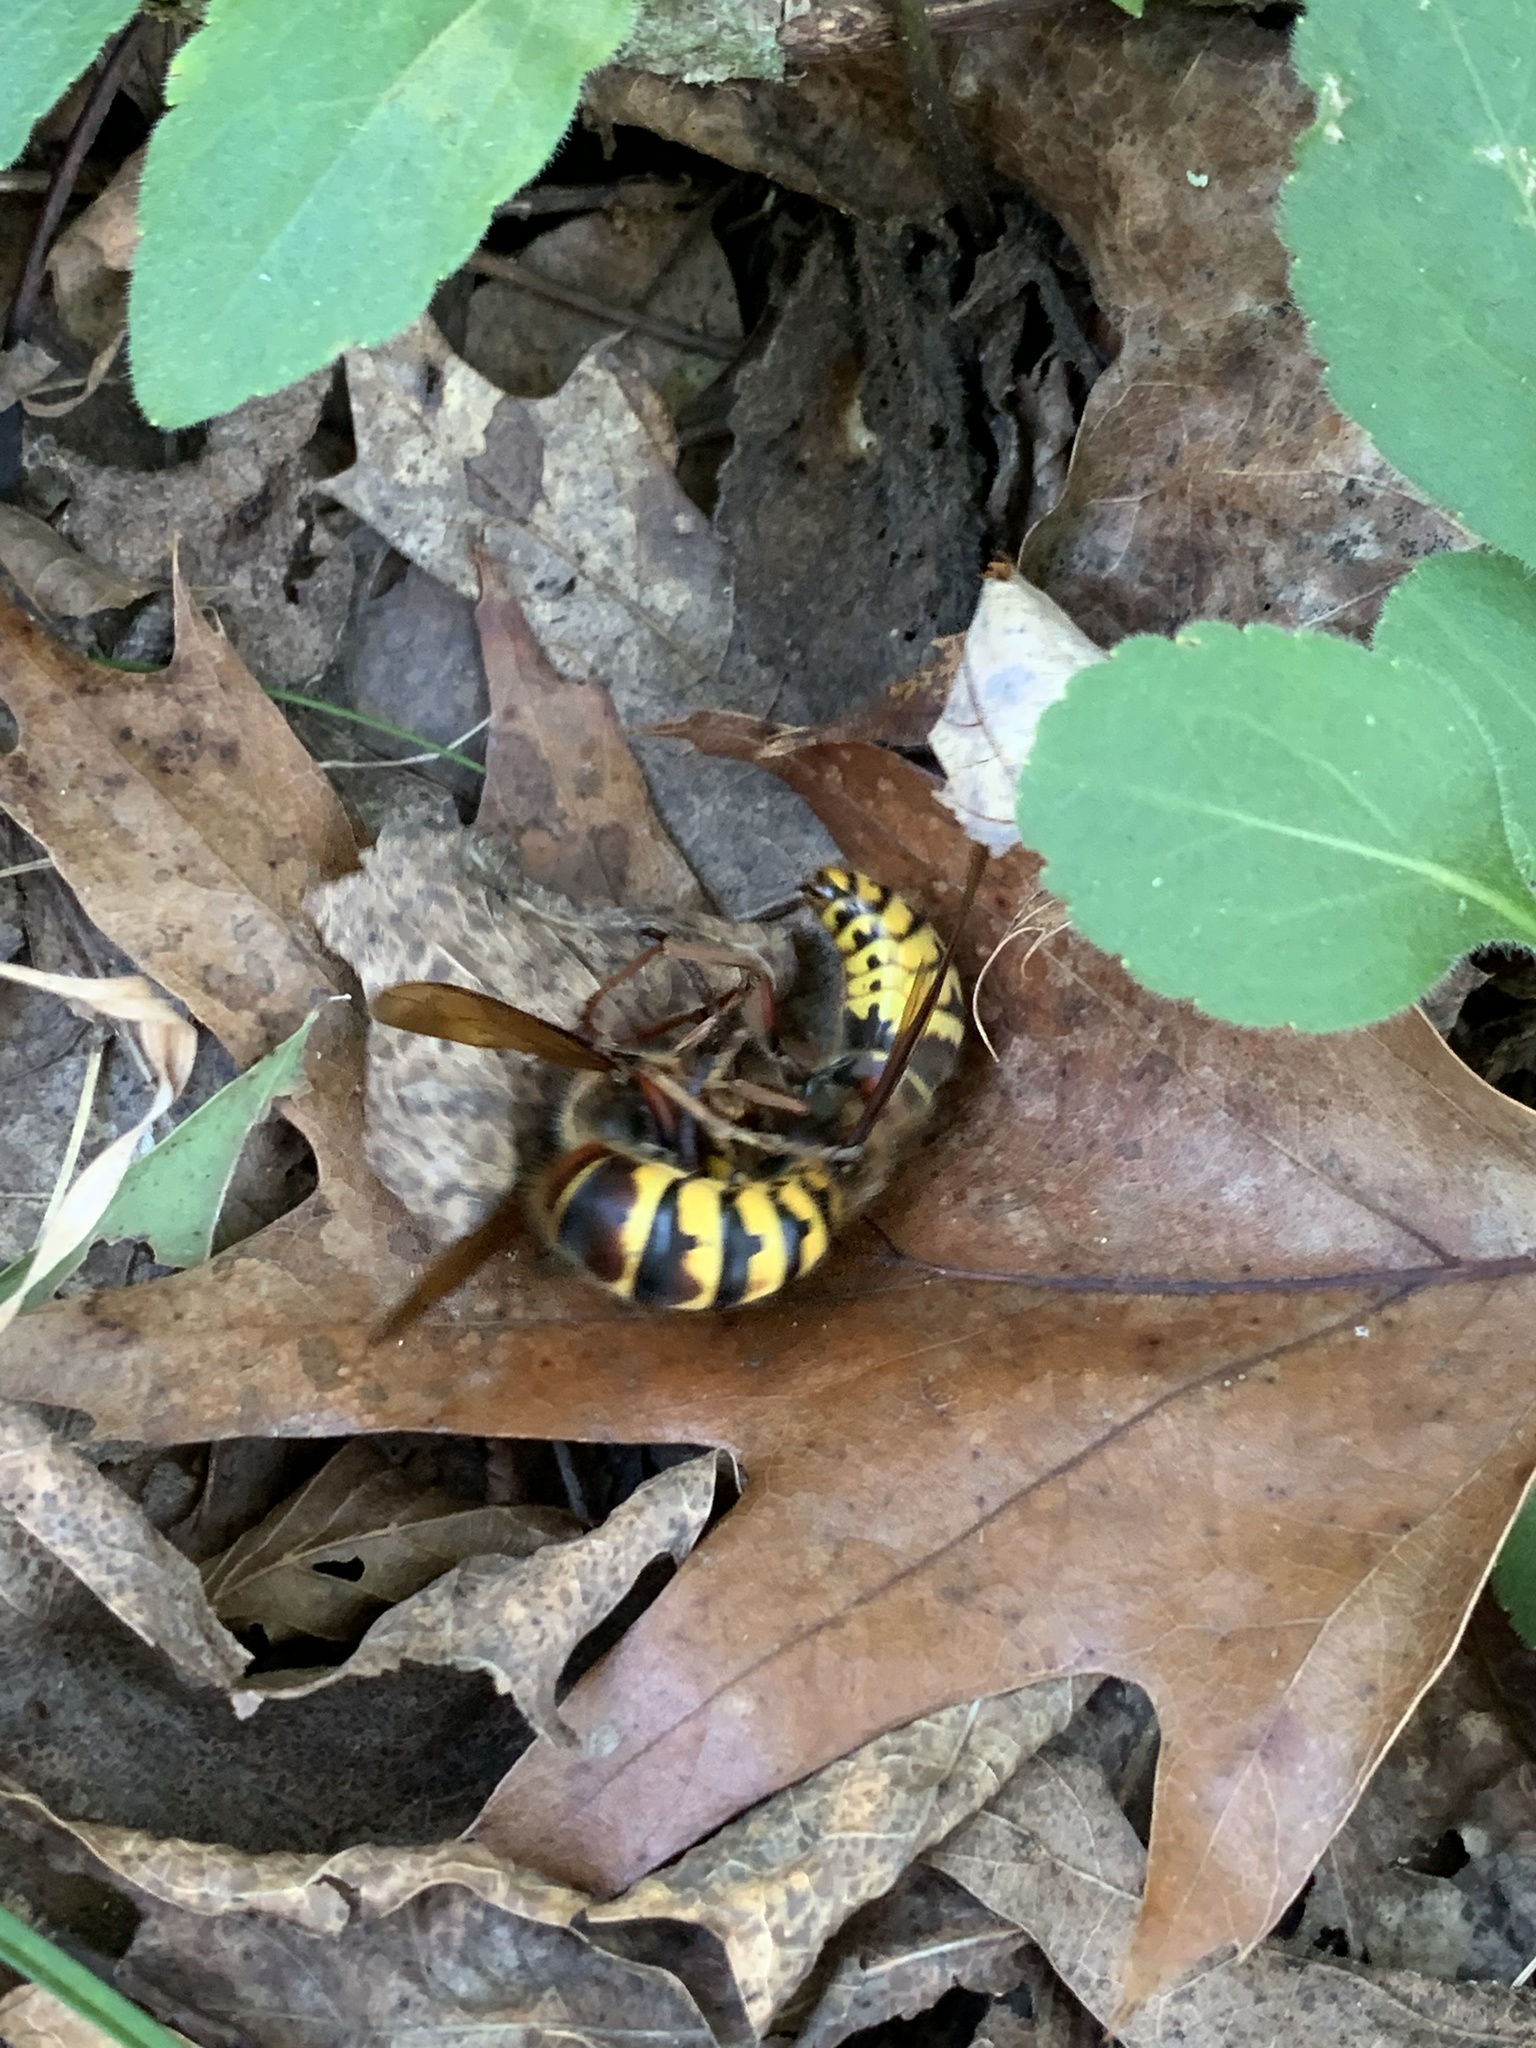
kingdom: Animalia
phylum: Arthropoda
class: Insecta
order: Hymenoptera
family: Vespidae
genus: Vespa
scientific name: Vespa crabro
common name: Hornet
